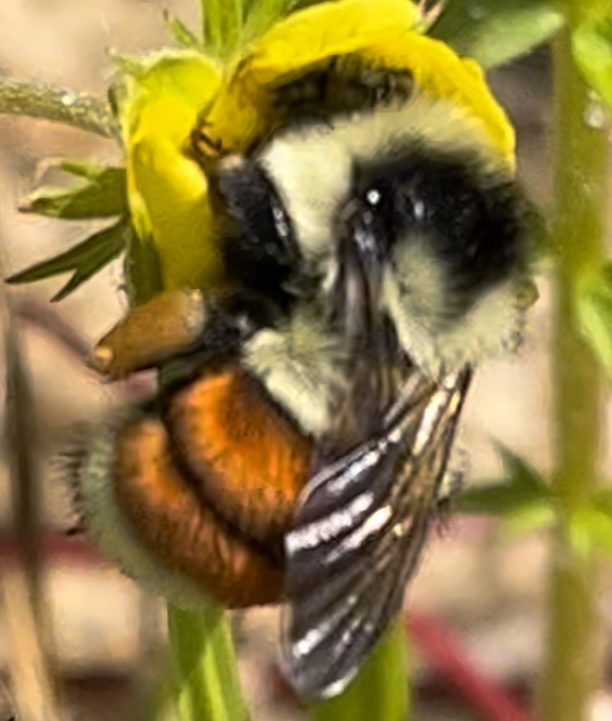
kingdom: Animalia
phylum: Arthropoda
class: Insecta
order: Hymenoptera
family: Apidae
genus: Bombus
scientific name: Bombus ternarius
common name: Tri-colored bumble bee
